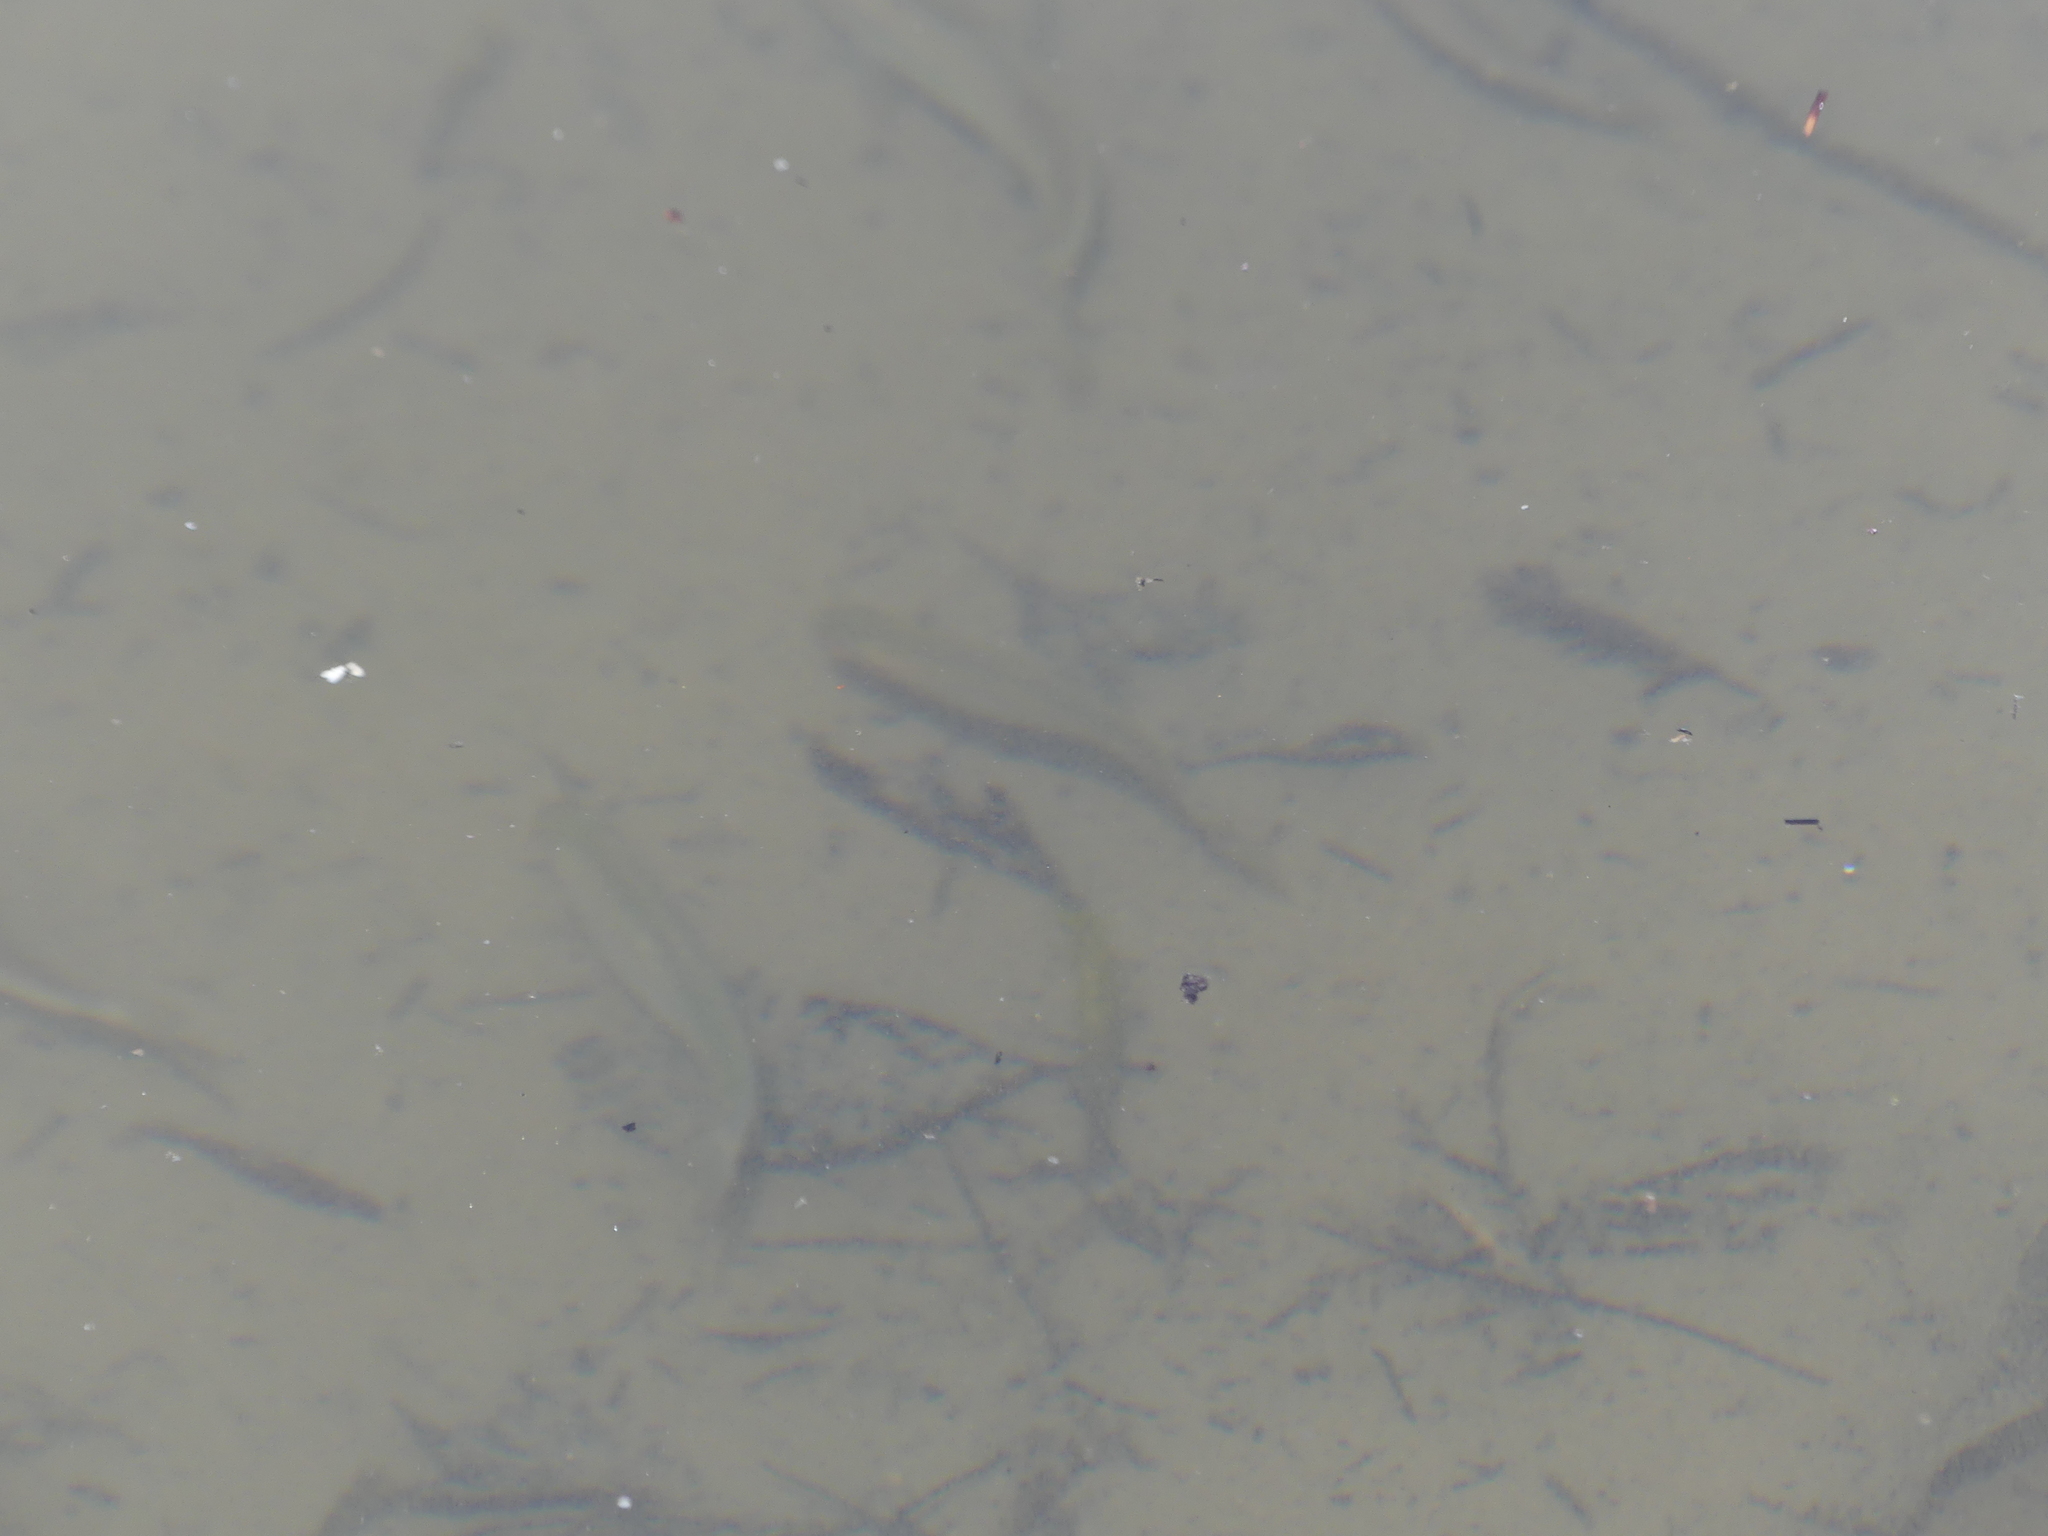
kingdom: Animalia
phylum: Chordata
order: Cypriniformes
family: Cyprinidae
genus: Leucos
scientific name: Leucos aula
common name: Adriatic roach
